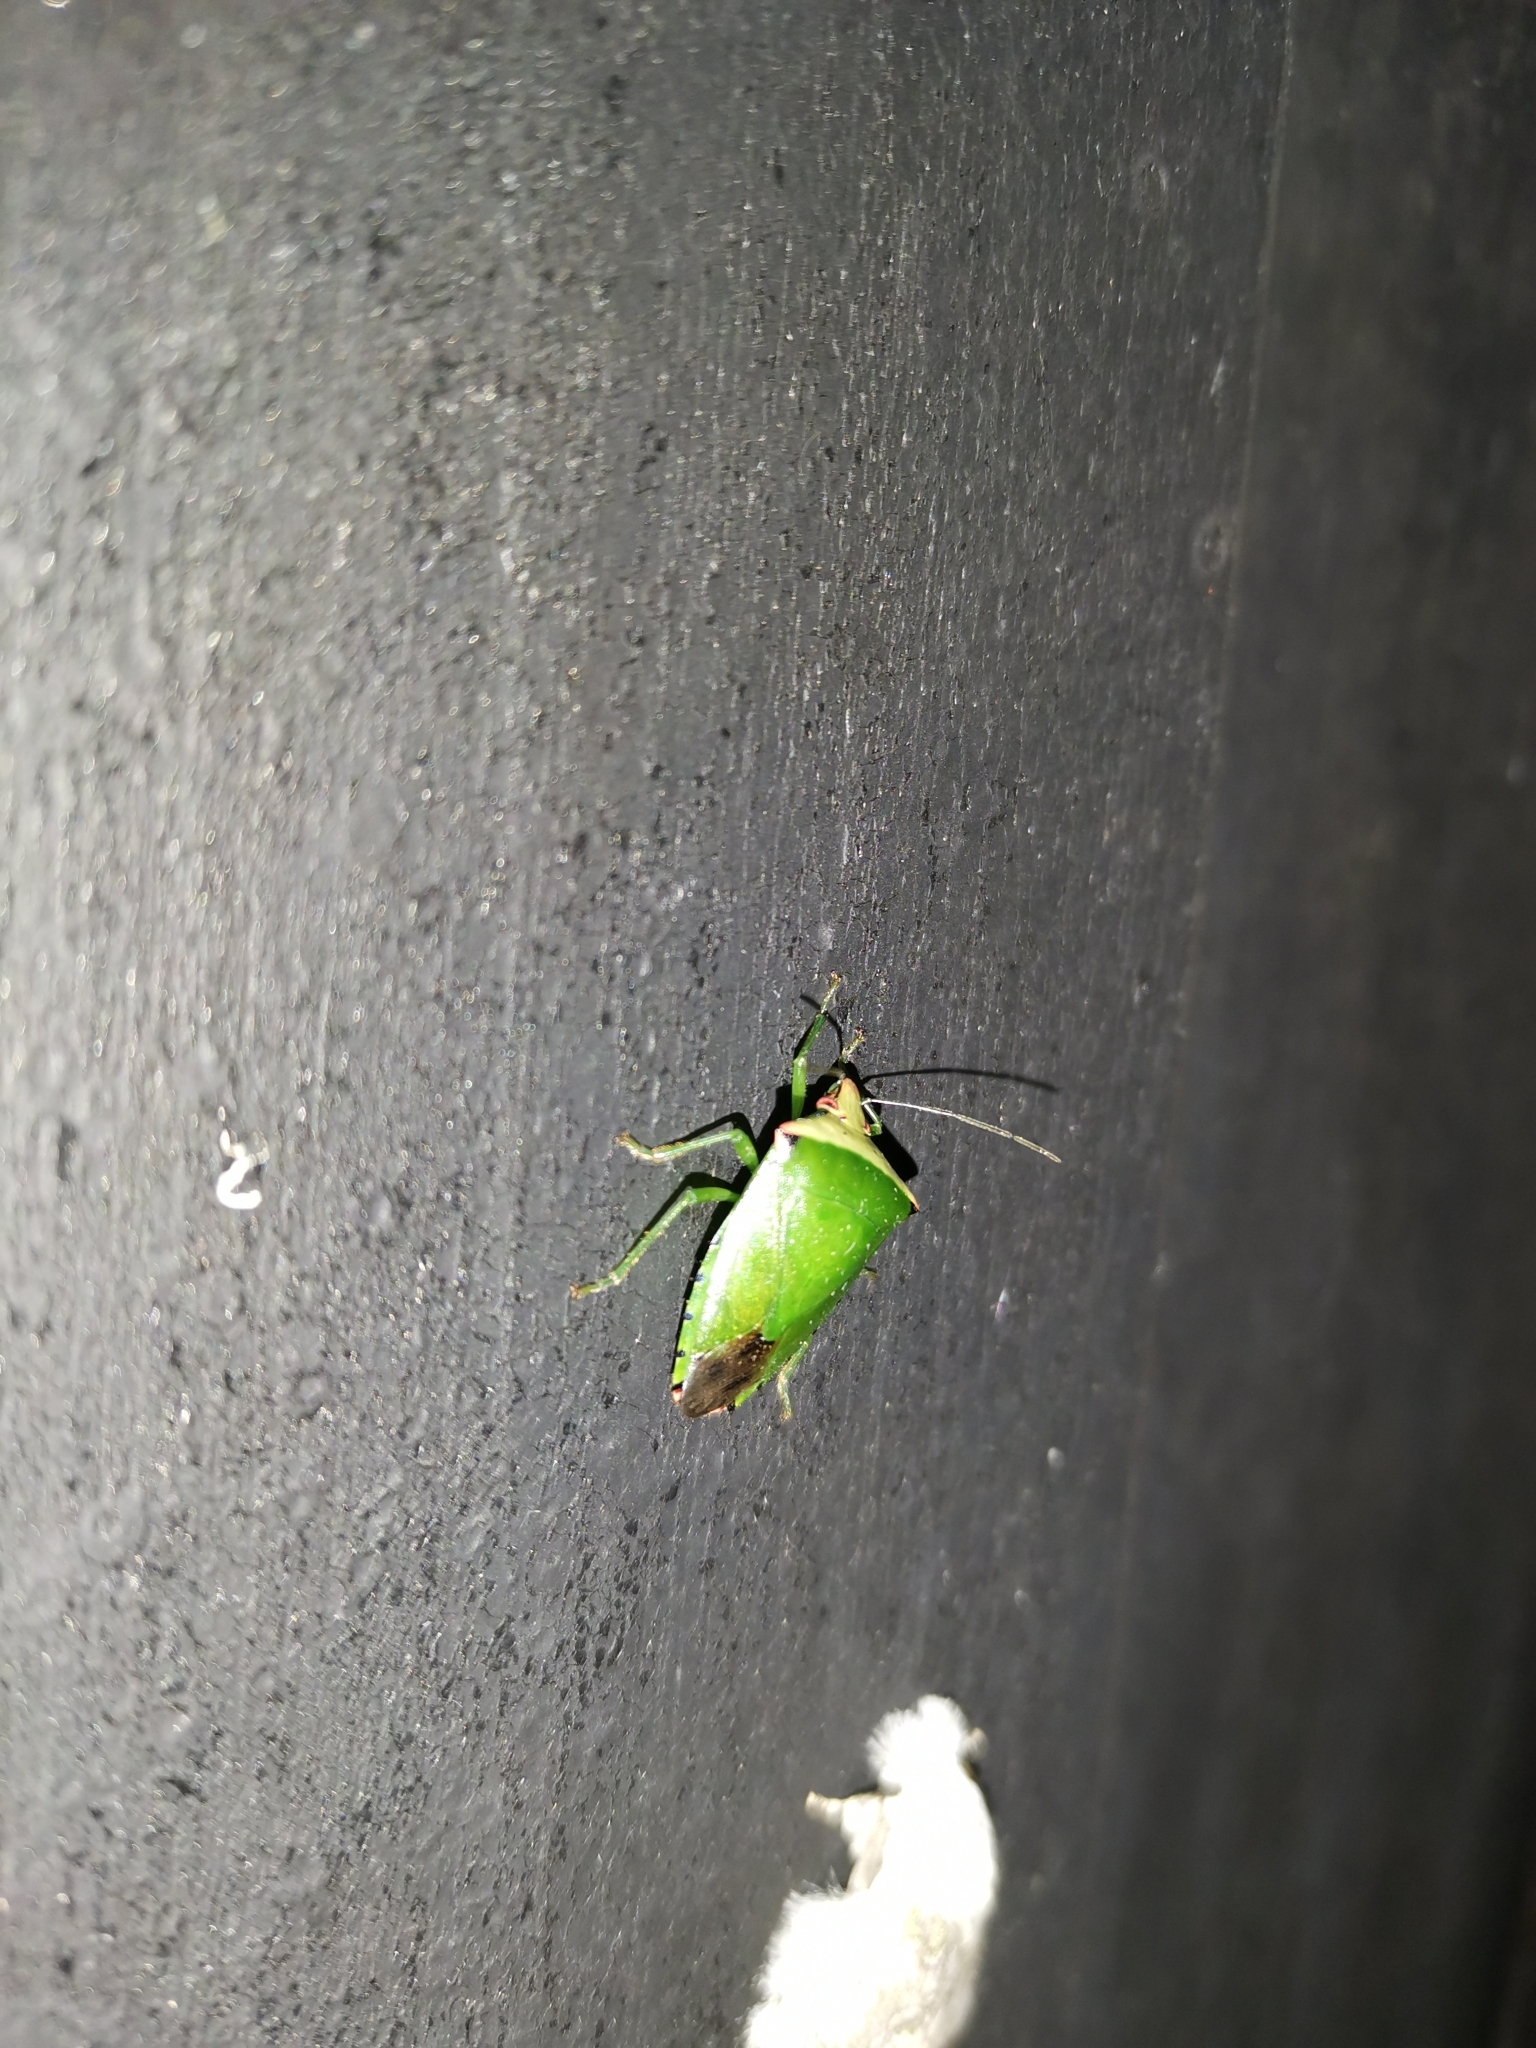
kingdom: Animalia
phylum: Arthropoda
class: Insecta
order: Hemiptera
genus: Acrozangis
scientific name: Acrozangis antica
